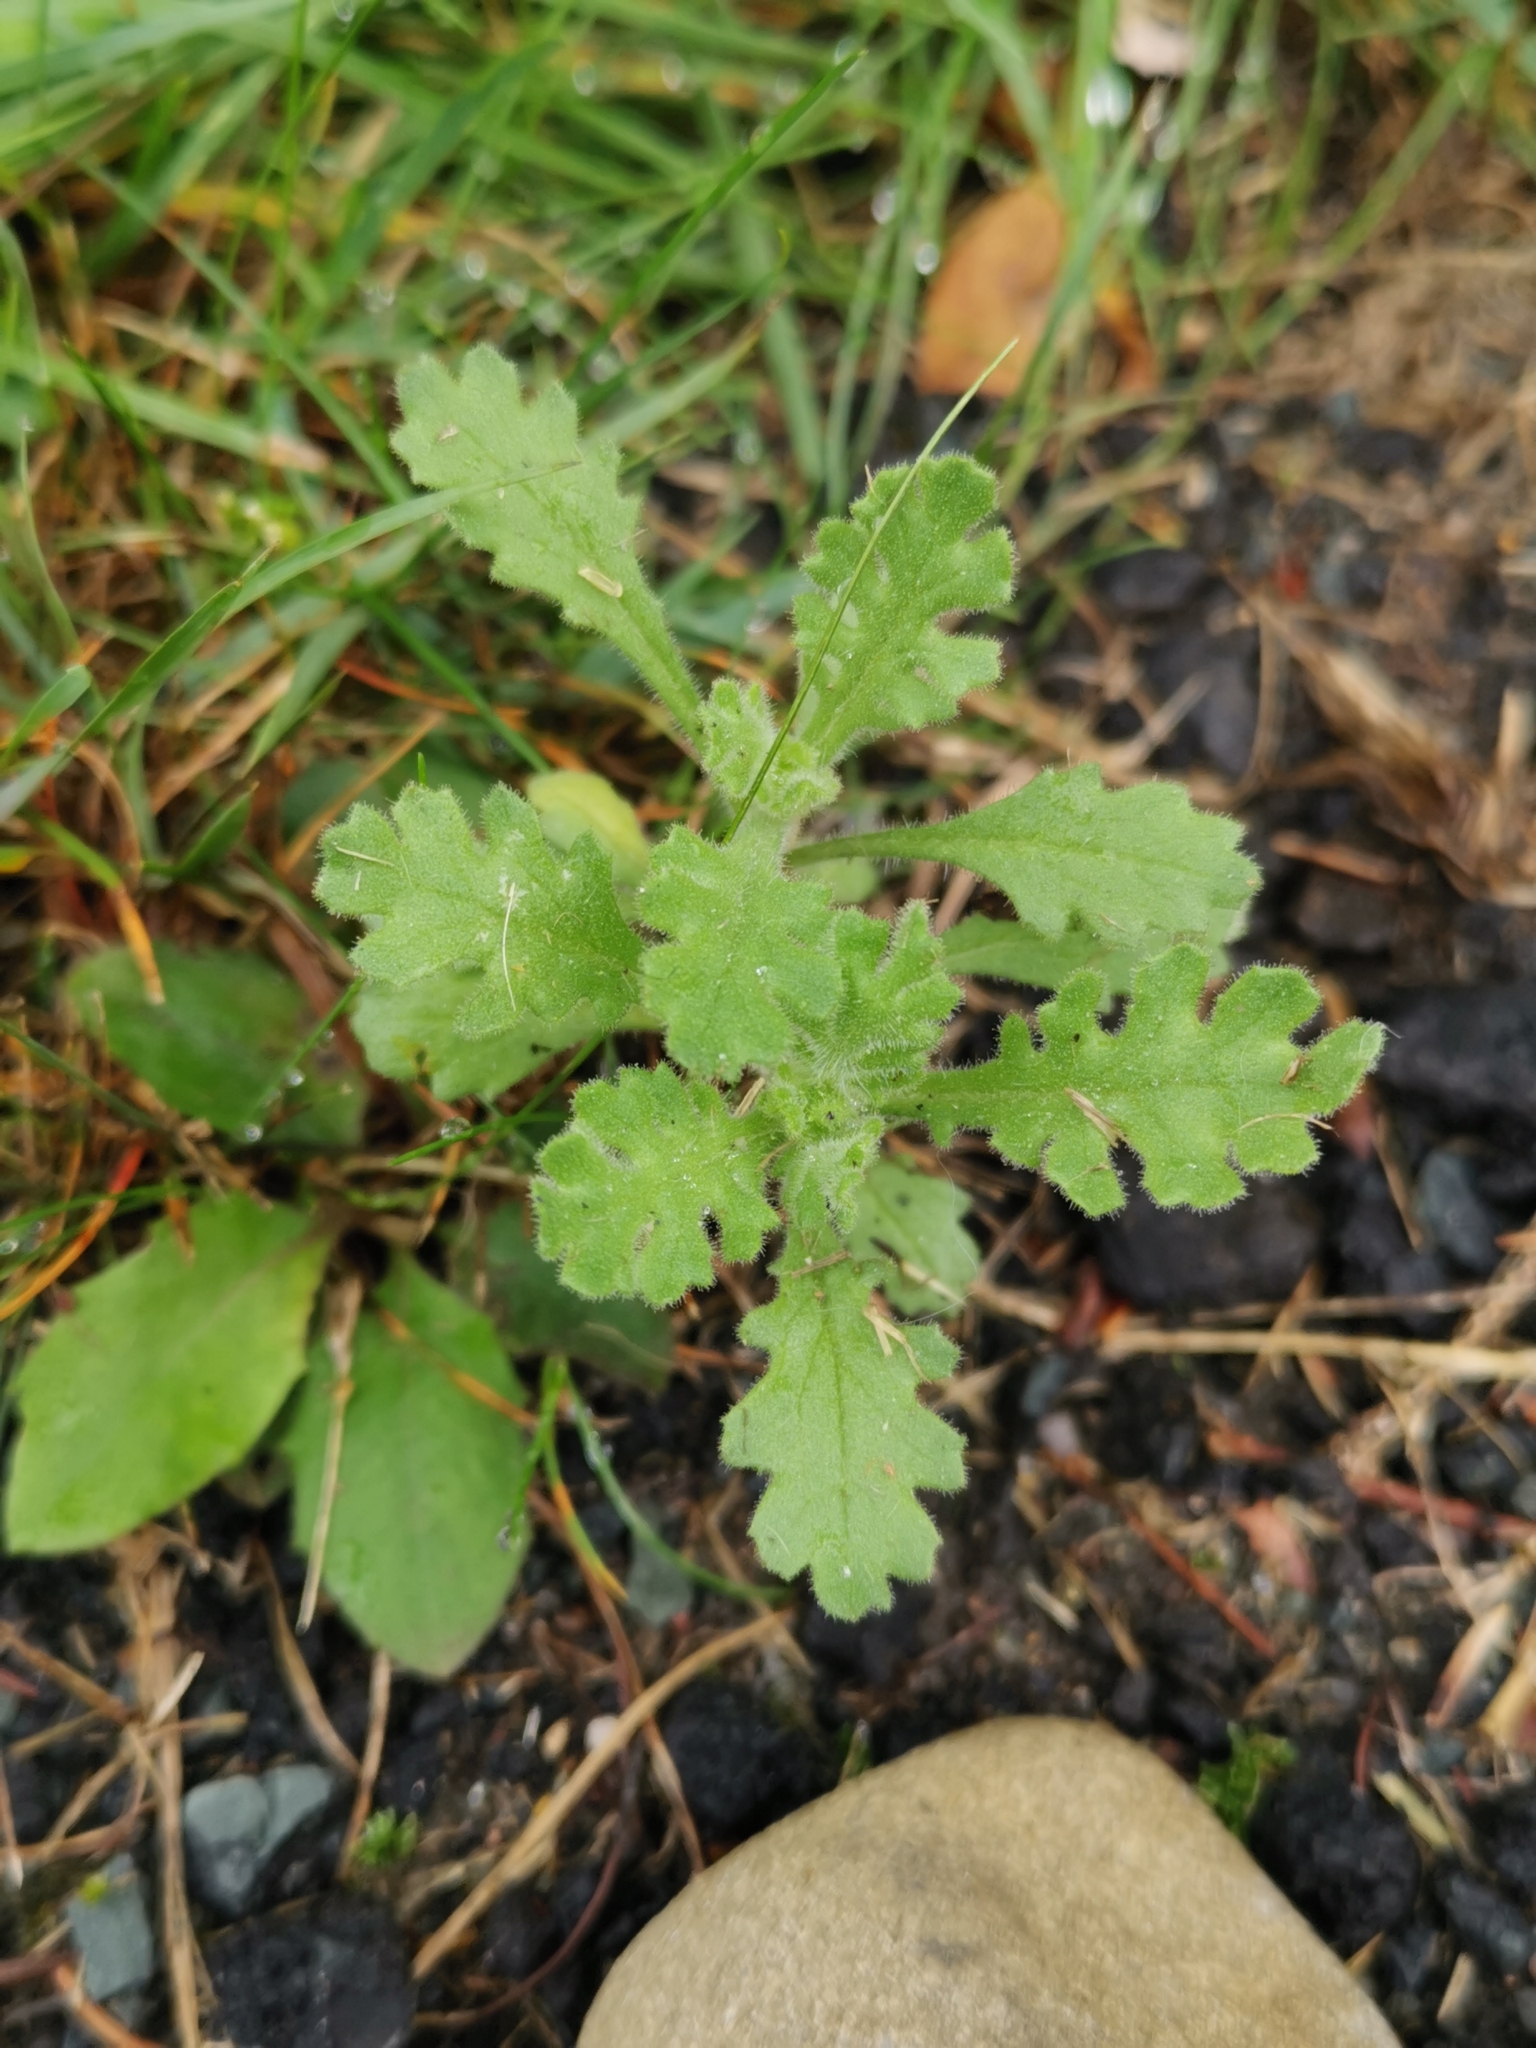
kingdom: Plantae
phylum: Tracheophyta
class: Magnoliopsida
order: Asterales
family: Asteraceae
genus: Senecio
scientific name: Senecio viscosus
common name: Sticky groundsel
